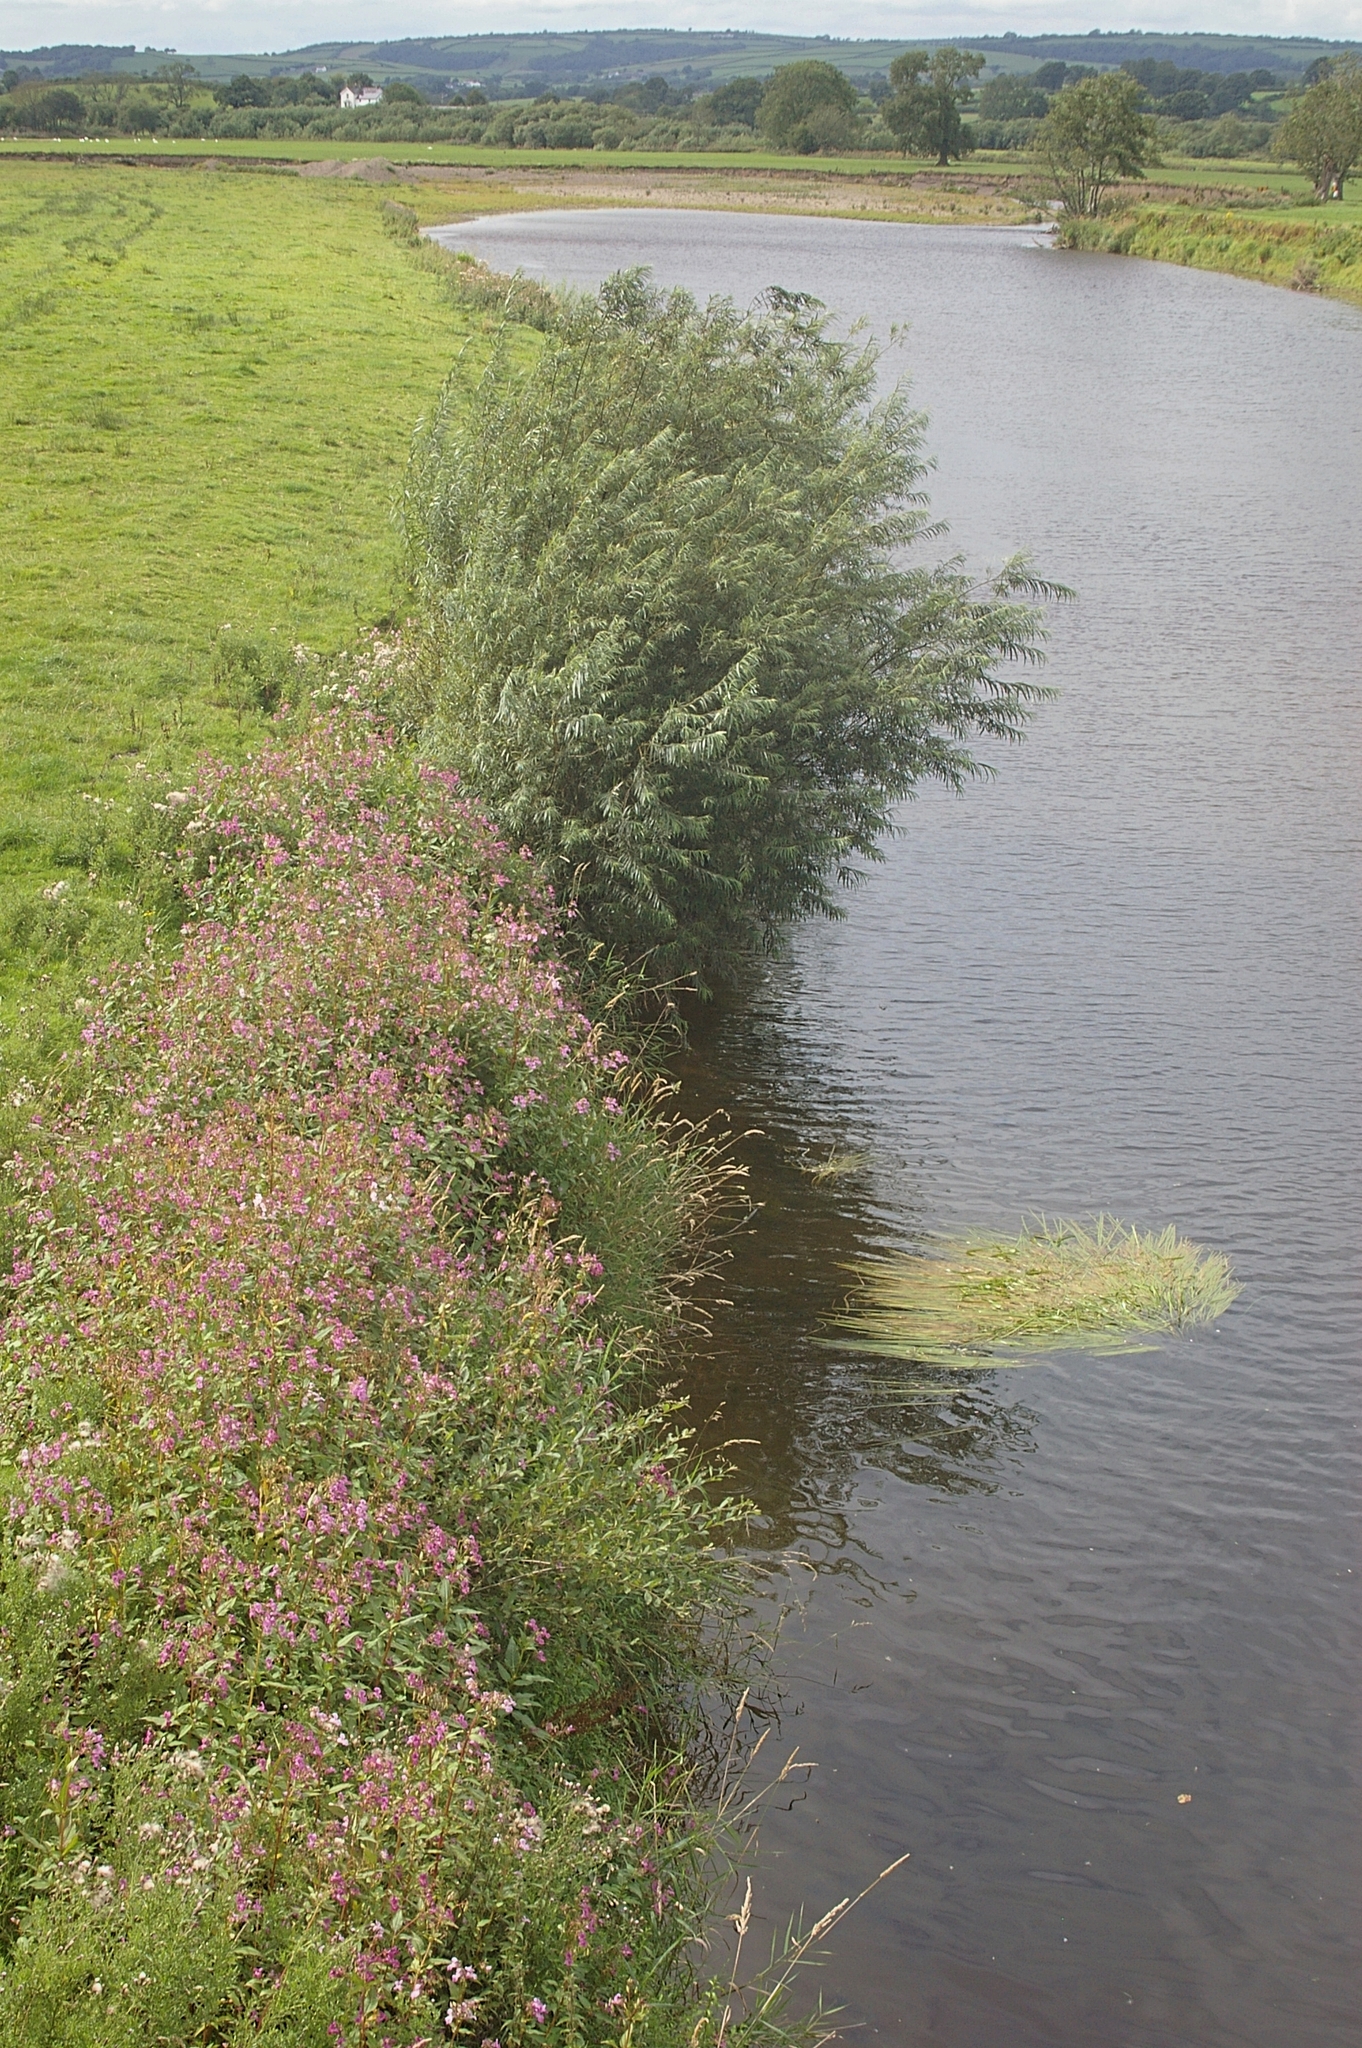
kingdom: Plantae
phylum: Tracheophyta
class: Magnoliopsida
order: Ericales
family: Balsaminaceae
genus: Impatiens
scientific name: Impatiens glandulifera
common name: Himalayan balsam
